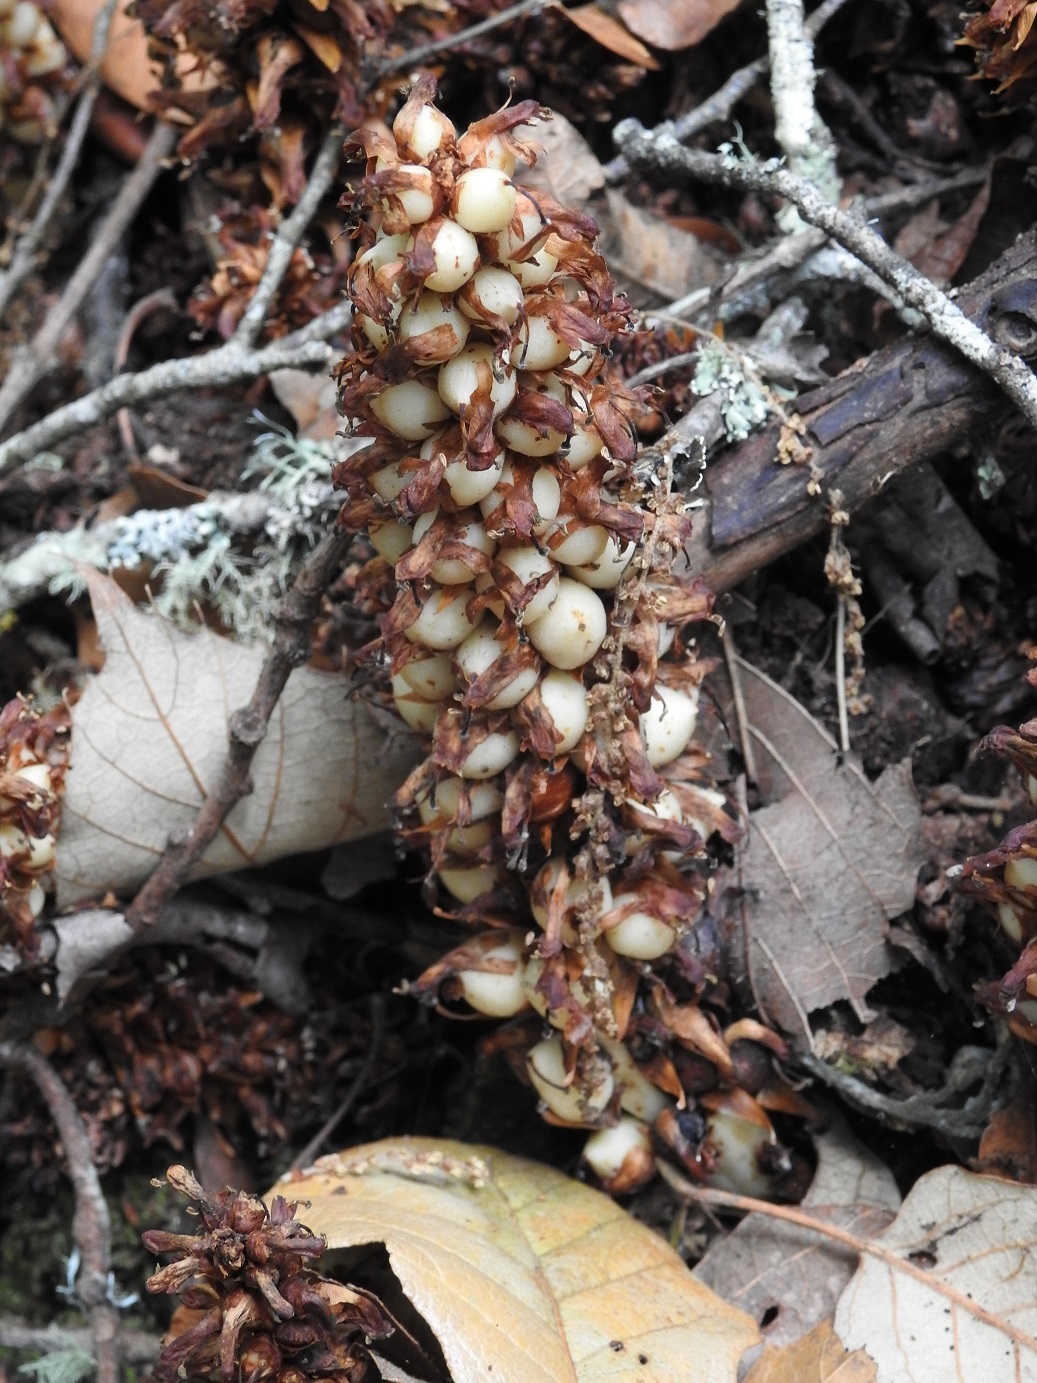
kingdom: Plantae
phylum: Tracheophyta
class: Magnoliopsida
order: Lamiales
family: Orobanchaceae
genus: Conopholis
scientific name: Conopholis alpina
